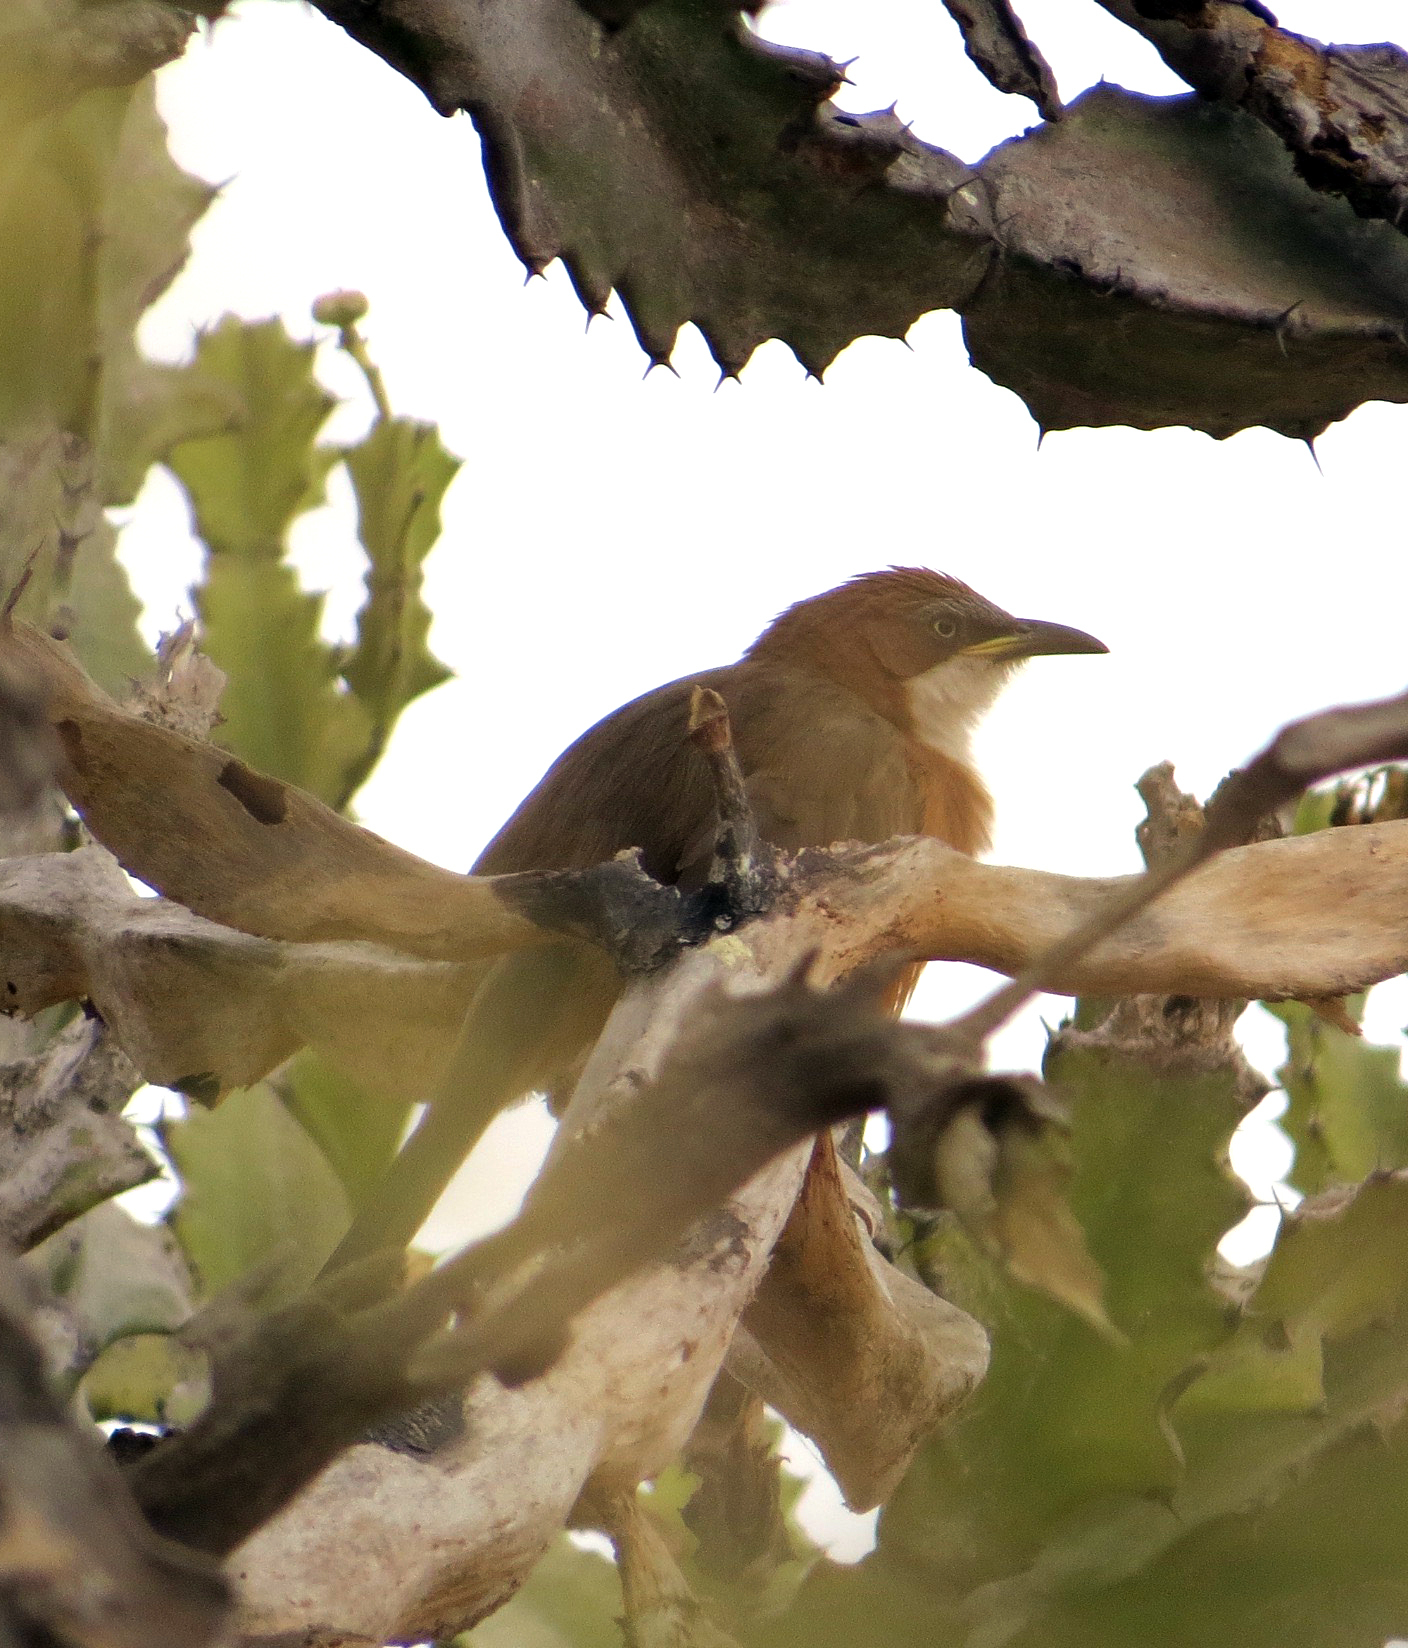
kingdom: Animalia
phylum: Chordata
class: Aves
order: Passeriformes
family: Leiothrichidae
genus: Turdoides
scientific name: Turdoides gularis
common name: White-throated babbler
